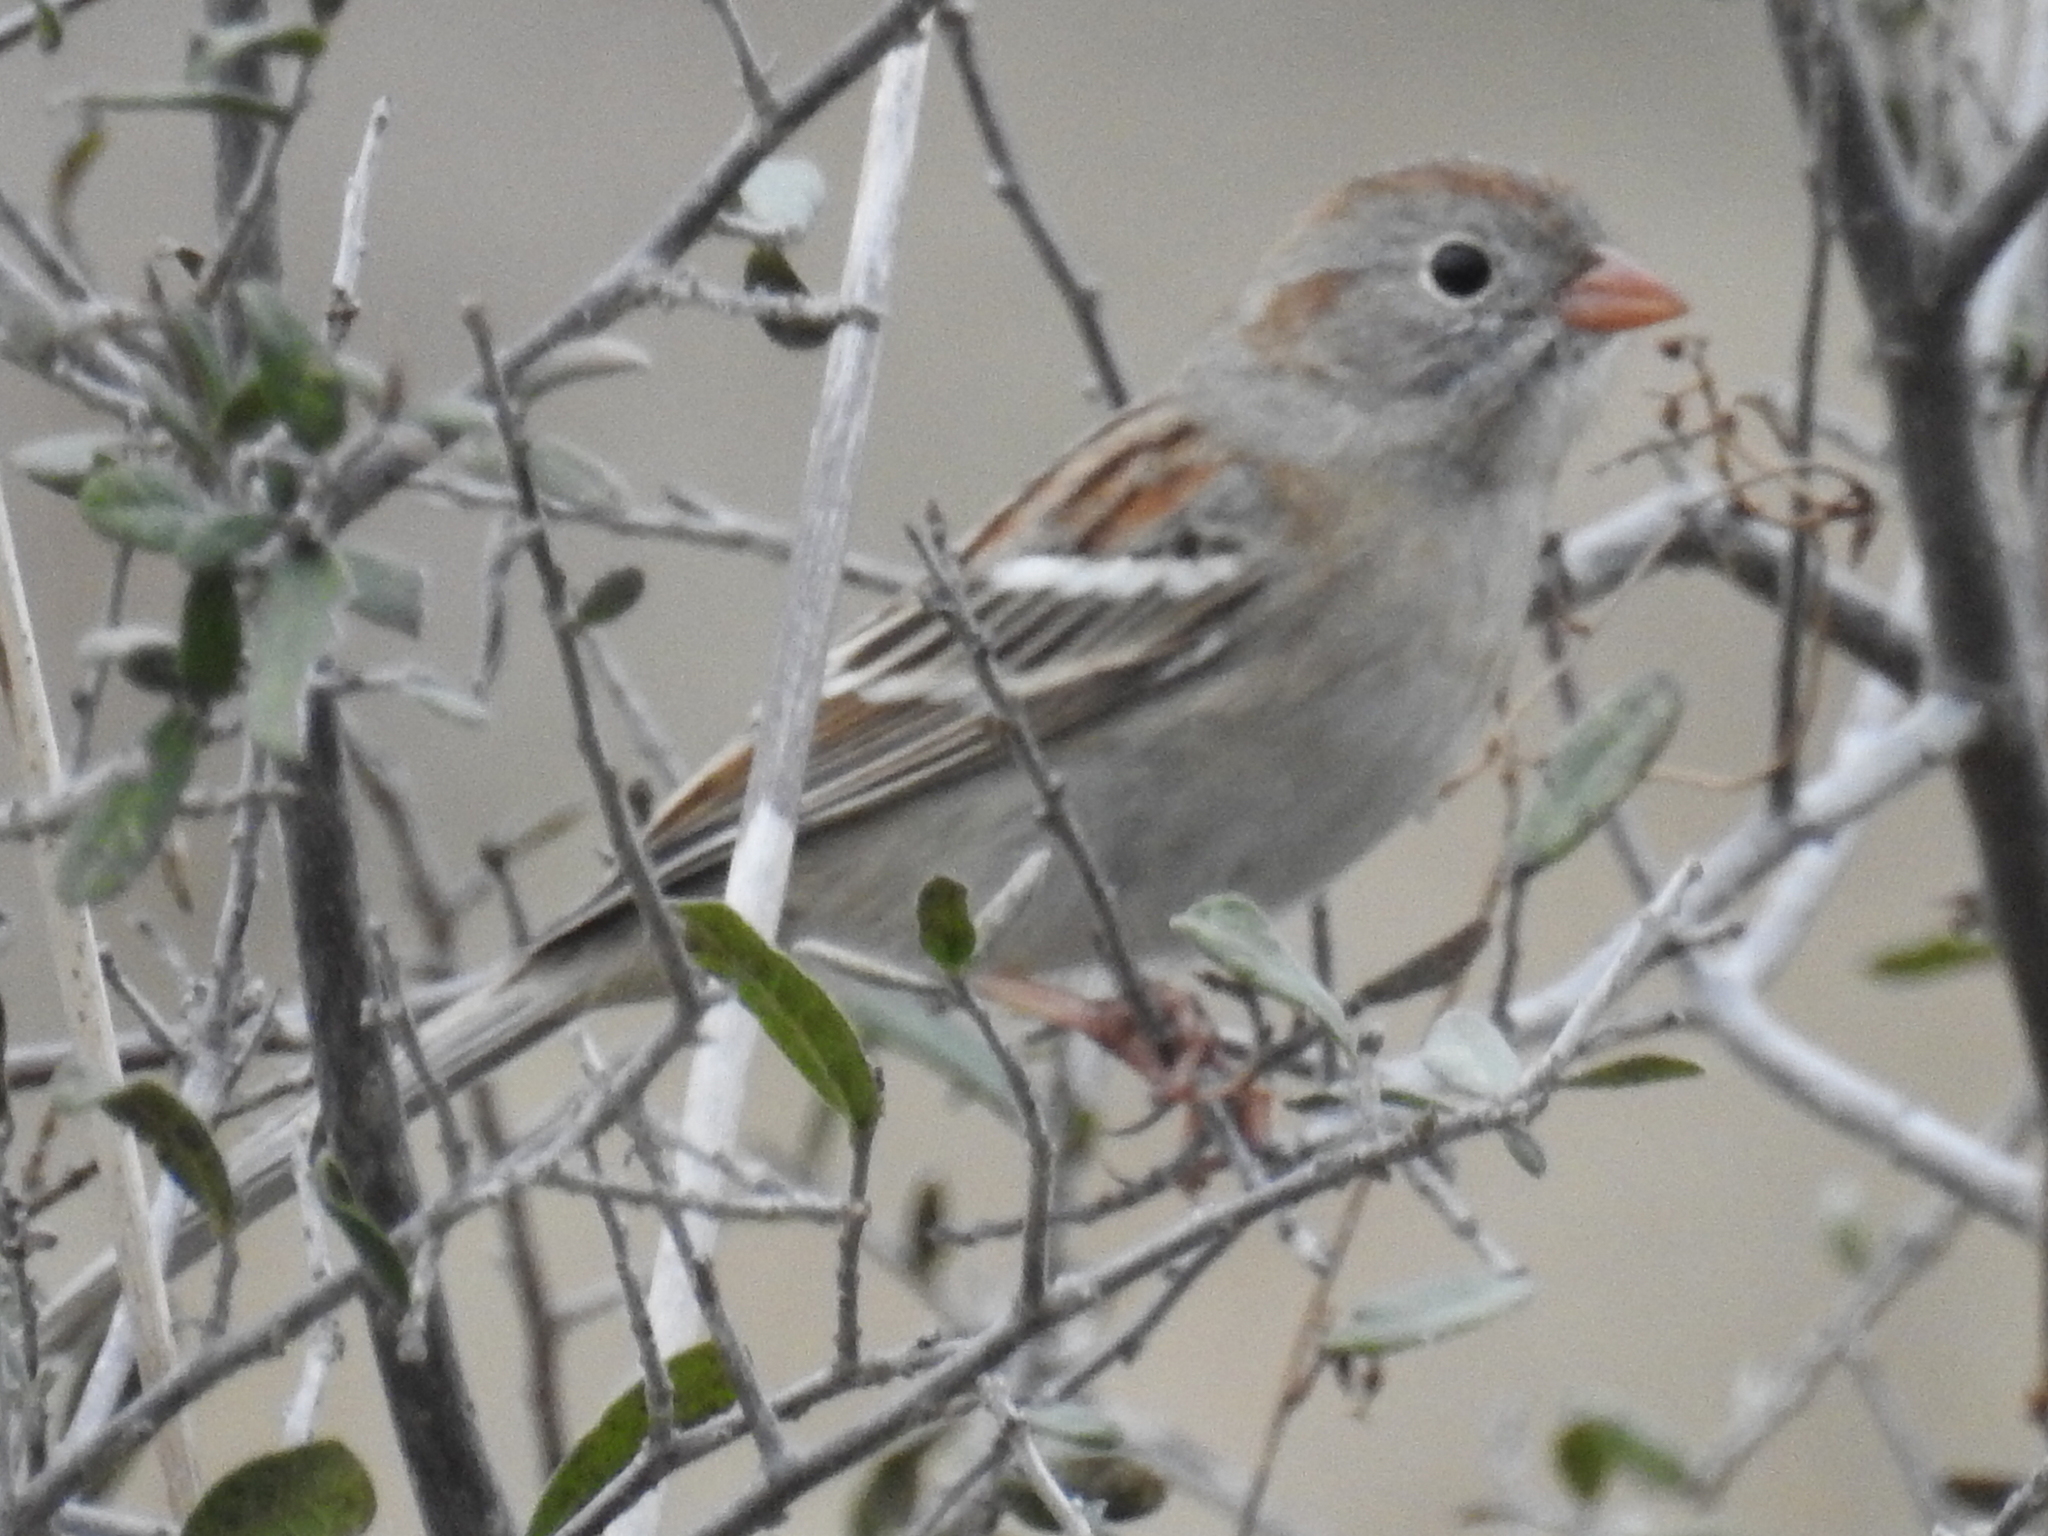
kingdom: Animalia
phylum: Chordata
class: Aves
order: Passeriformes
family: Passerellidae
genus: Spizella
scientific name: Spizella pusilla
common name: Field sparrow
